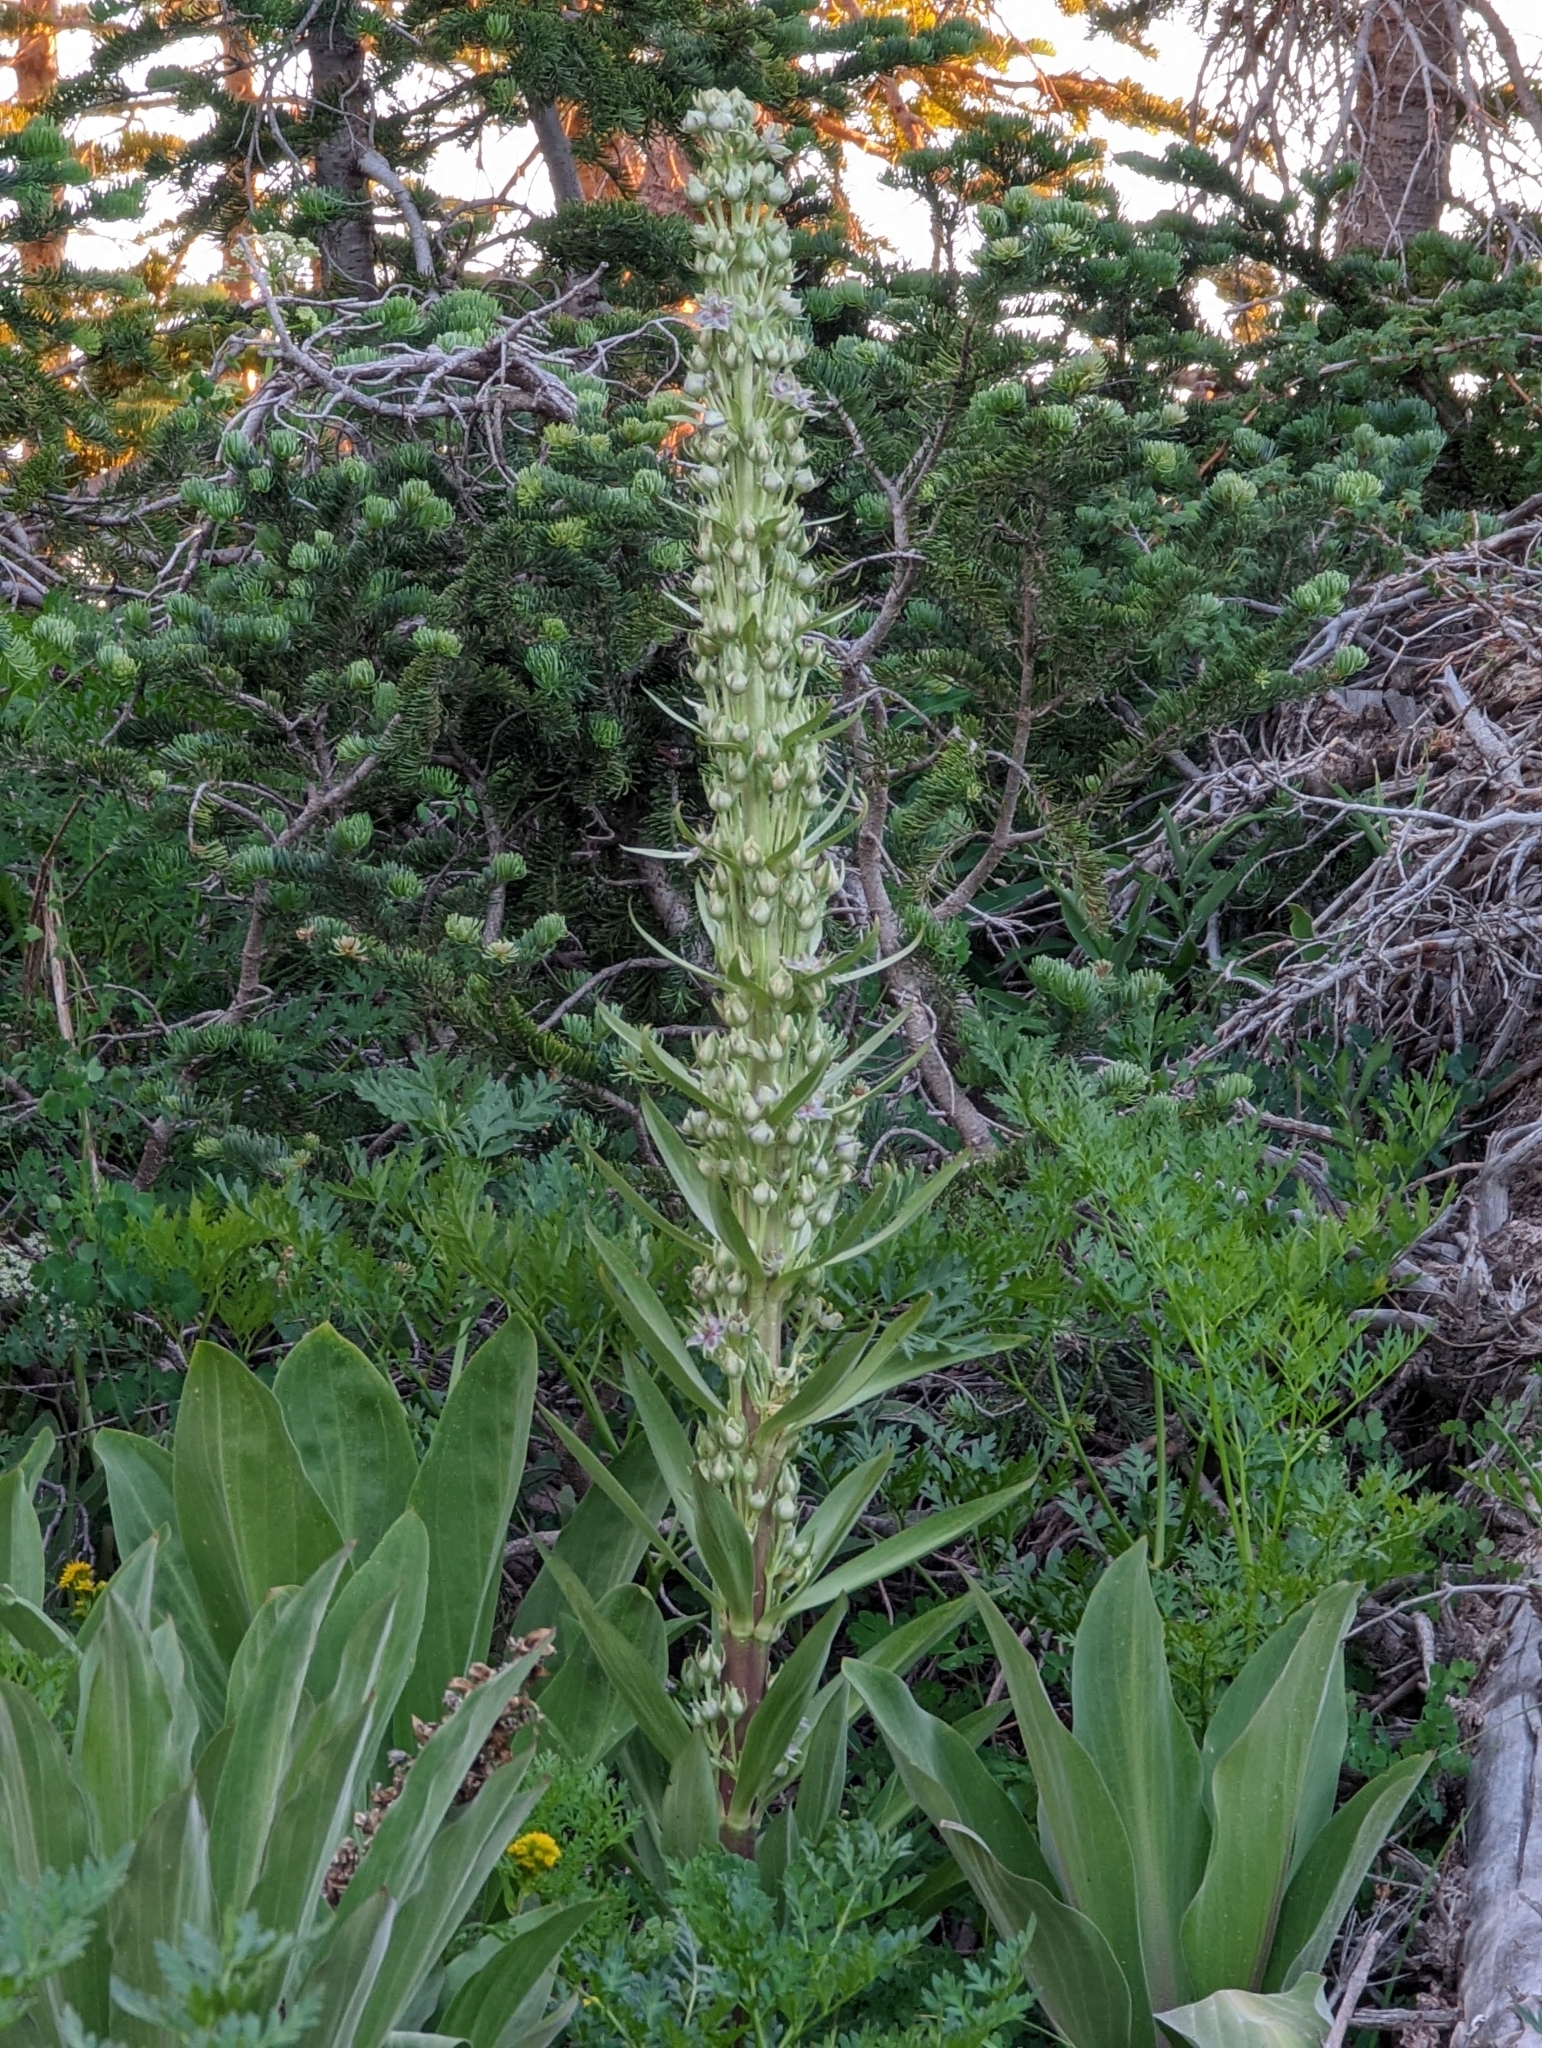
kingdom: Plantae
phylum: Tracheophyta
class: Magnoliopsida
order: Gentianales
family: Gentianaceae
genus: Frasera
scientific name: Frasera speciosa
